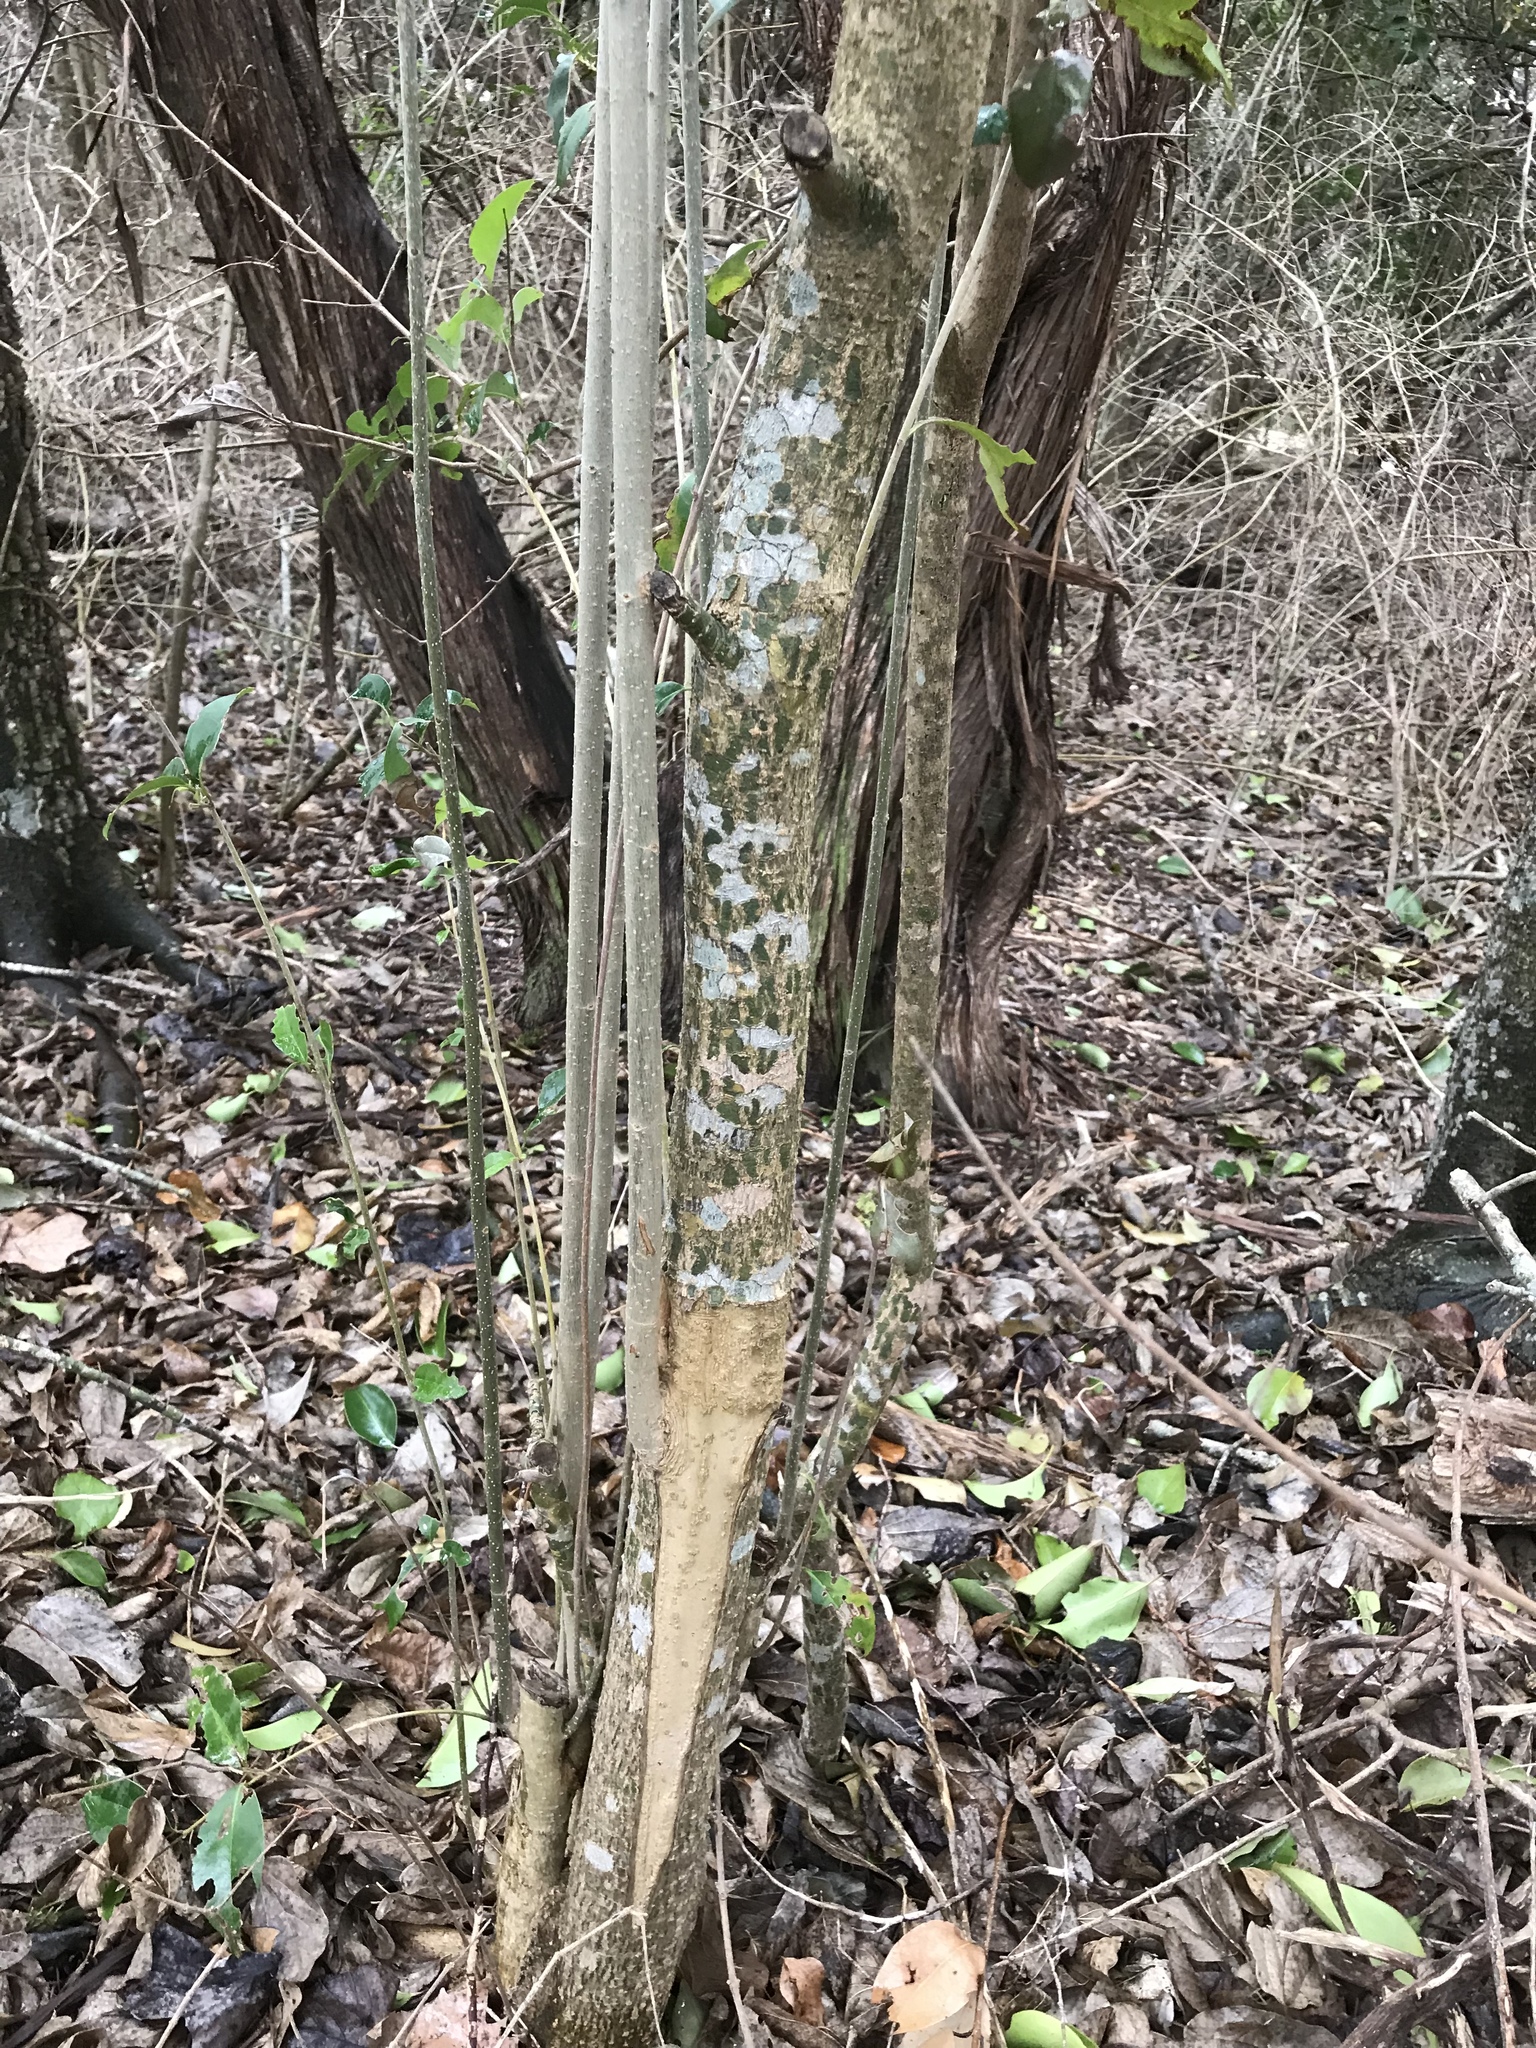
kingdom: Plantae
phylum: Tracheophyta
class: Magnoliopsida
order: Lamiales
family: Oleaceae
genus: Ligustrum
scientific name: Ligustrum lucidum
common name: Glossy privet
